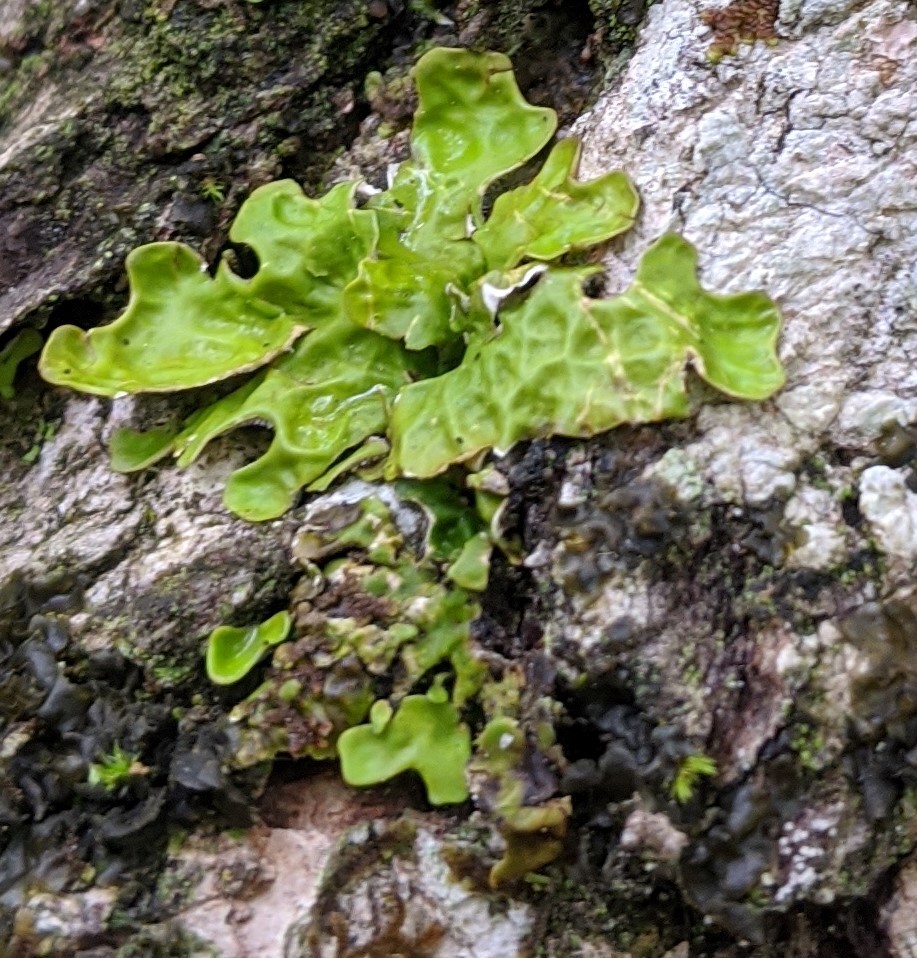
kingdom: Fungi
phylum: Ascomycota
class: Lecanoromycetes
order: Peltigerales
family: Lobariaceae
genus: Lobaria
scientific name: Lobaria pulmonaria
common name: Lungwort
